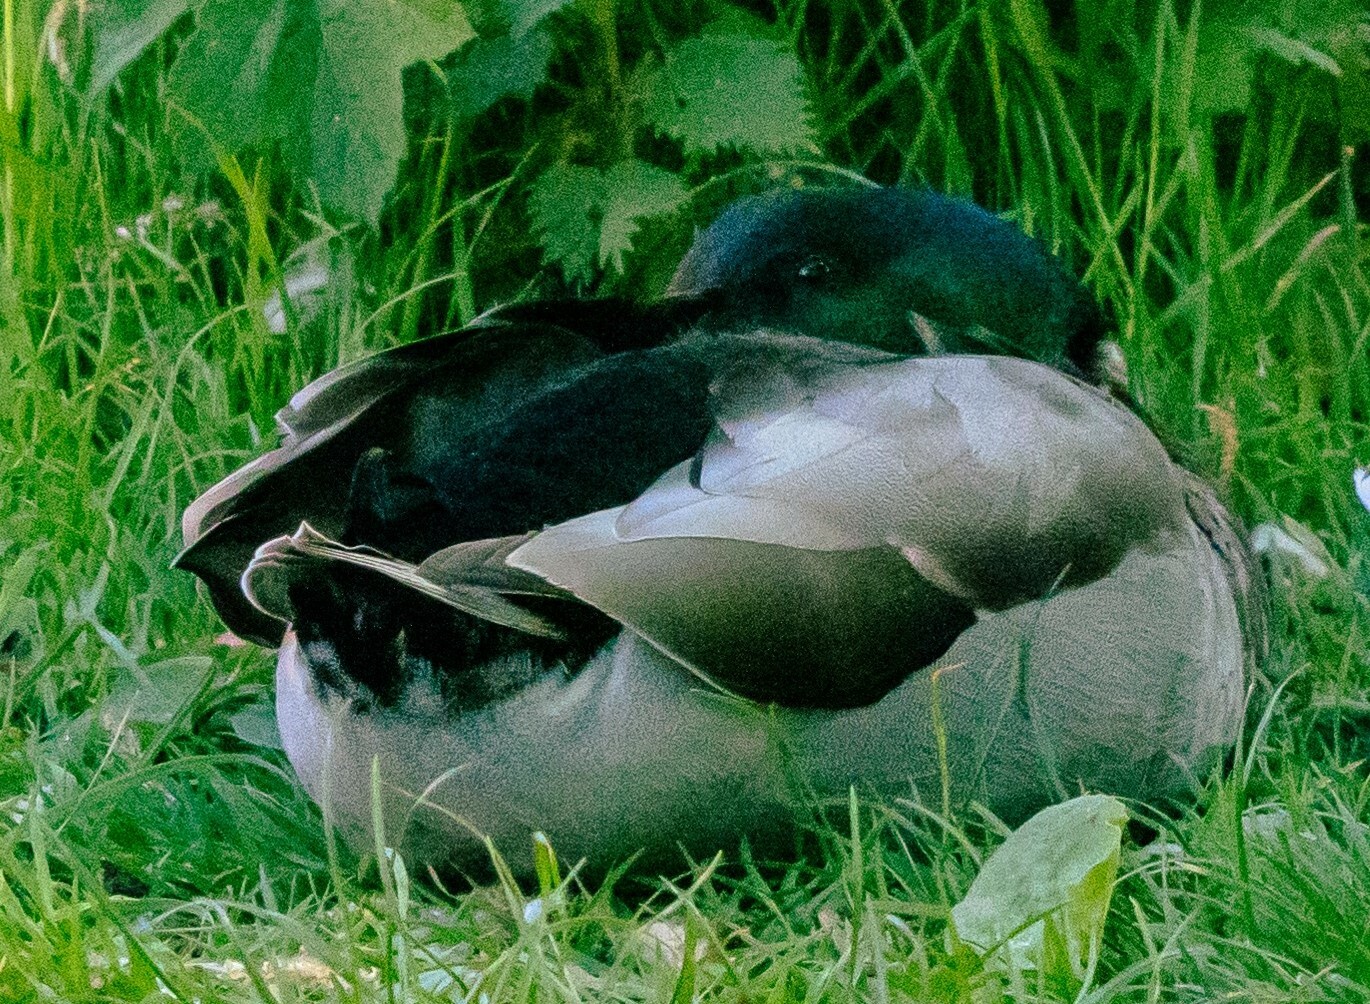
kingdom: Animalia
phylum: Chordata
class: Aves
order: Anseriformes
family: Anatidae
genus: Anas
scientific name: Anas platyrhynchos
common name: Mallard
